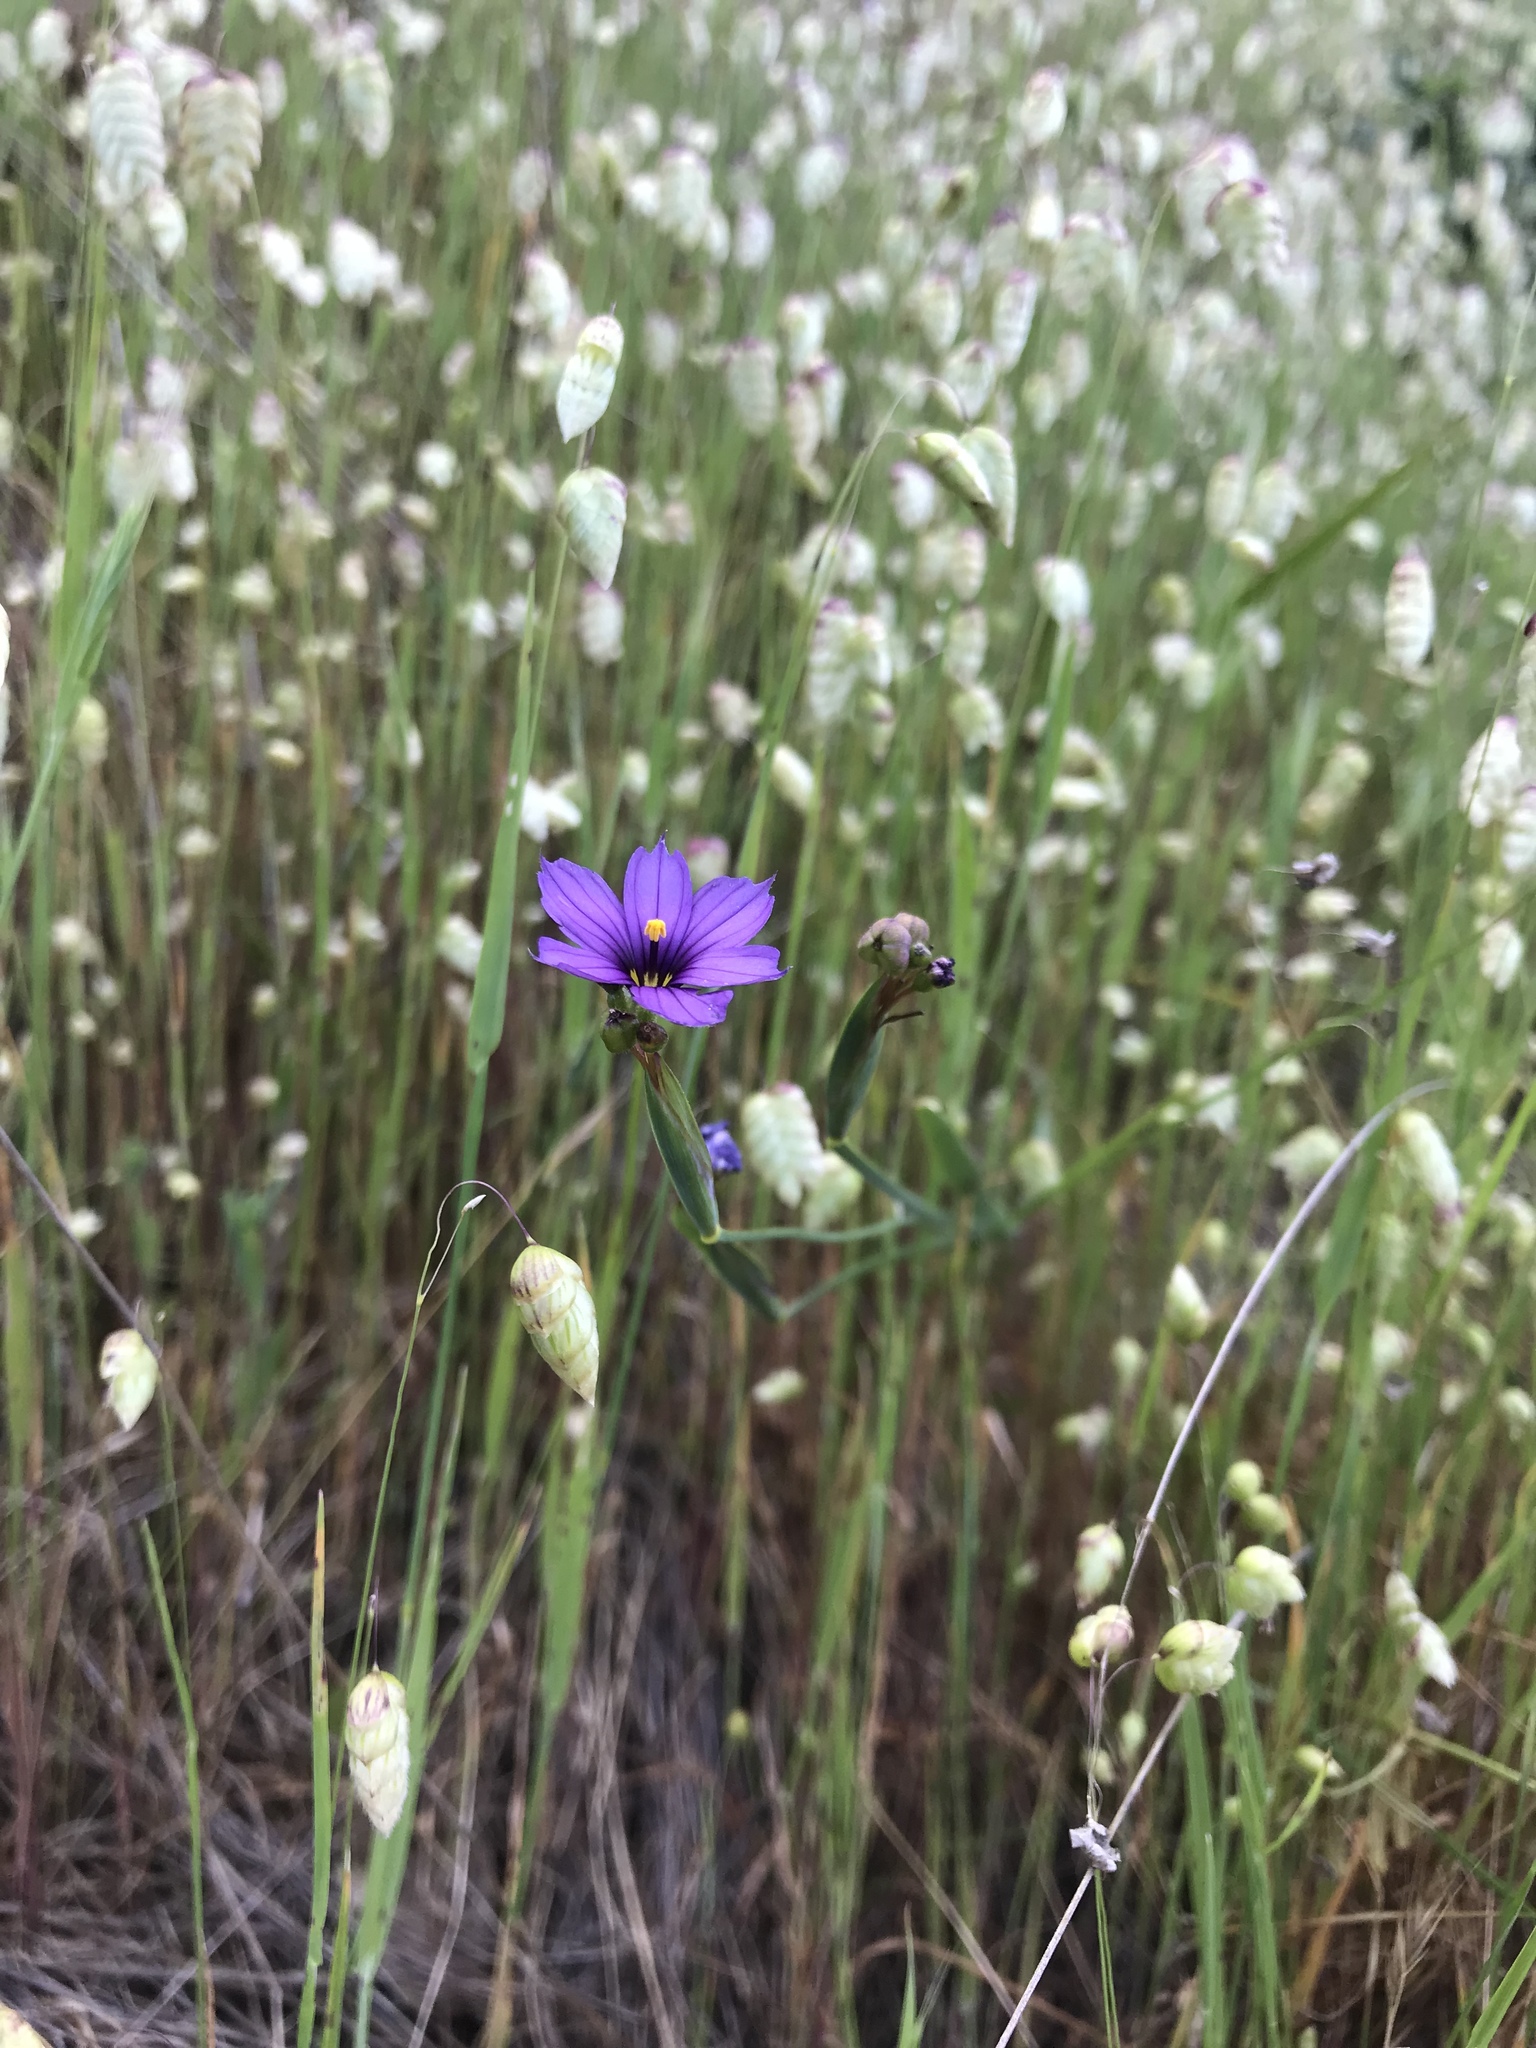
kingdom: Plantae
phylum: Tracheophyta
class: Liliopsida
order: Asparagales
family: Iridaceae
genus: Sisyrinchium
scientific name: Sisyrinchium bellum
